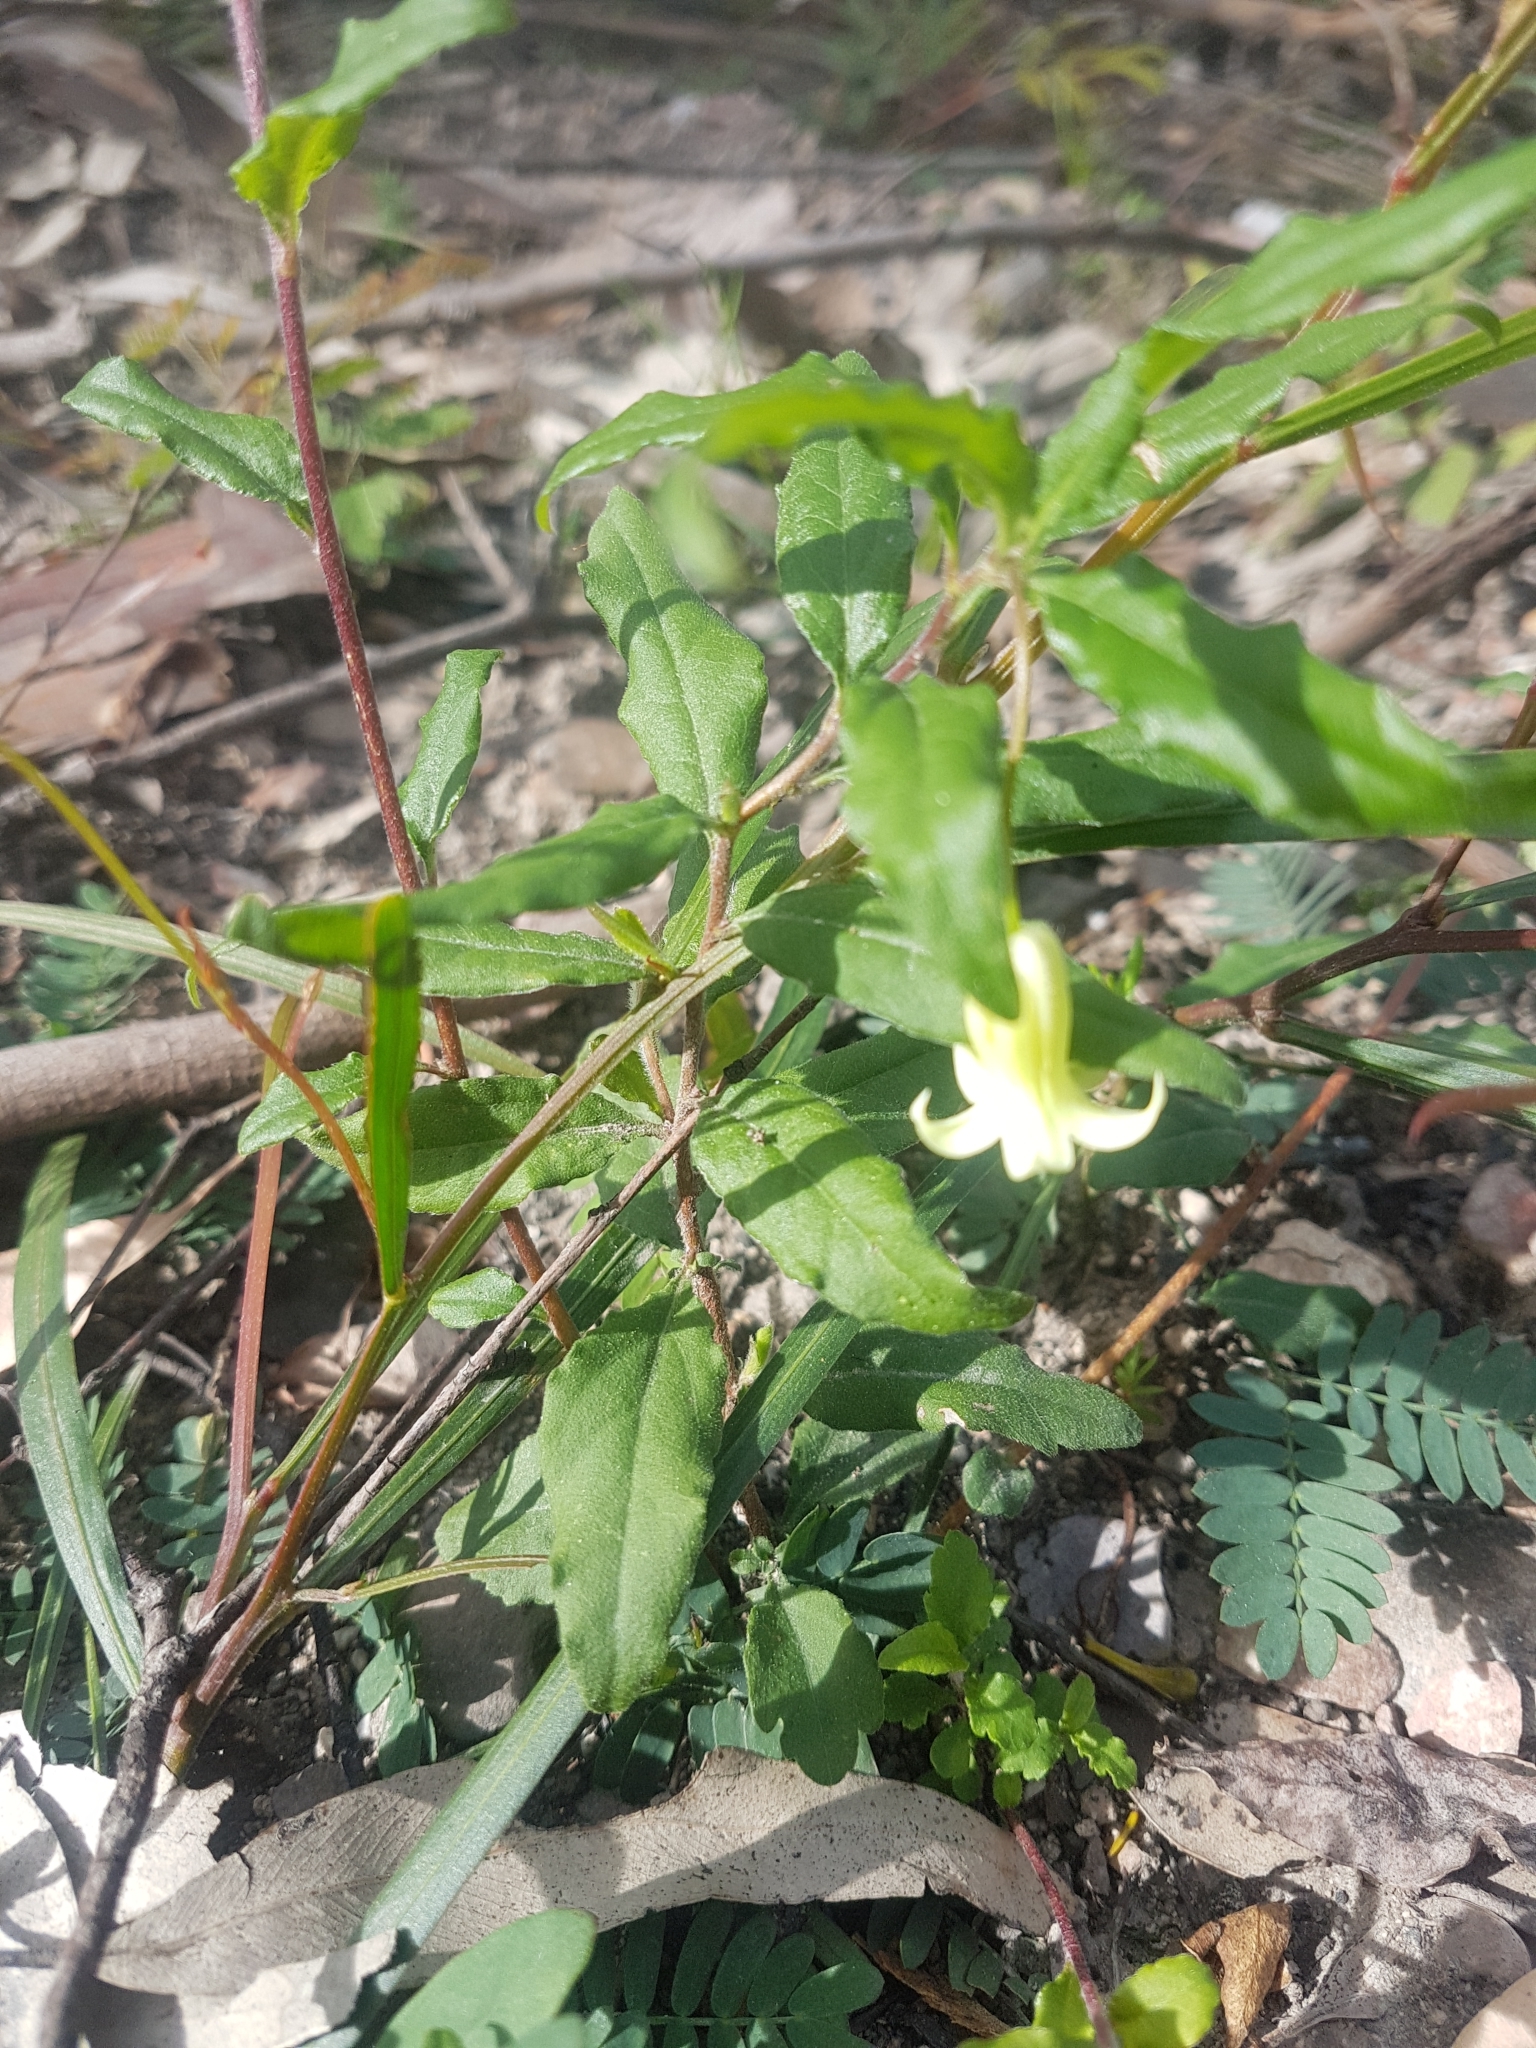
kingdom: Plantae
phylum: Tracheophyta
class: Magnoliopsida
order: Apiales
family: Pittosporaceae
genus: Billardiera
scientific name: Billardiera scandens
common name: Apple-berry
